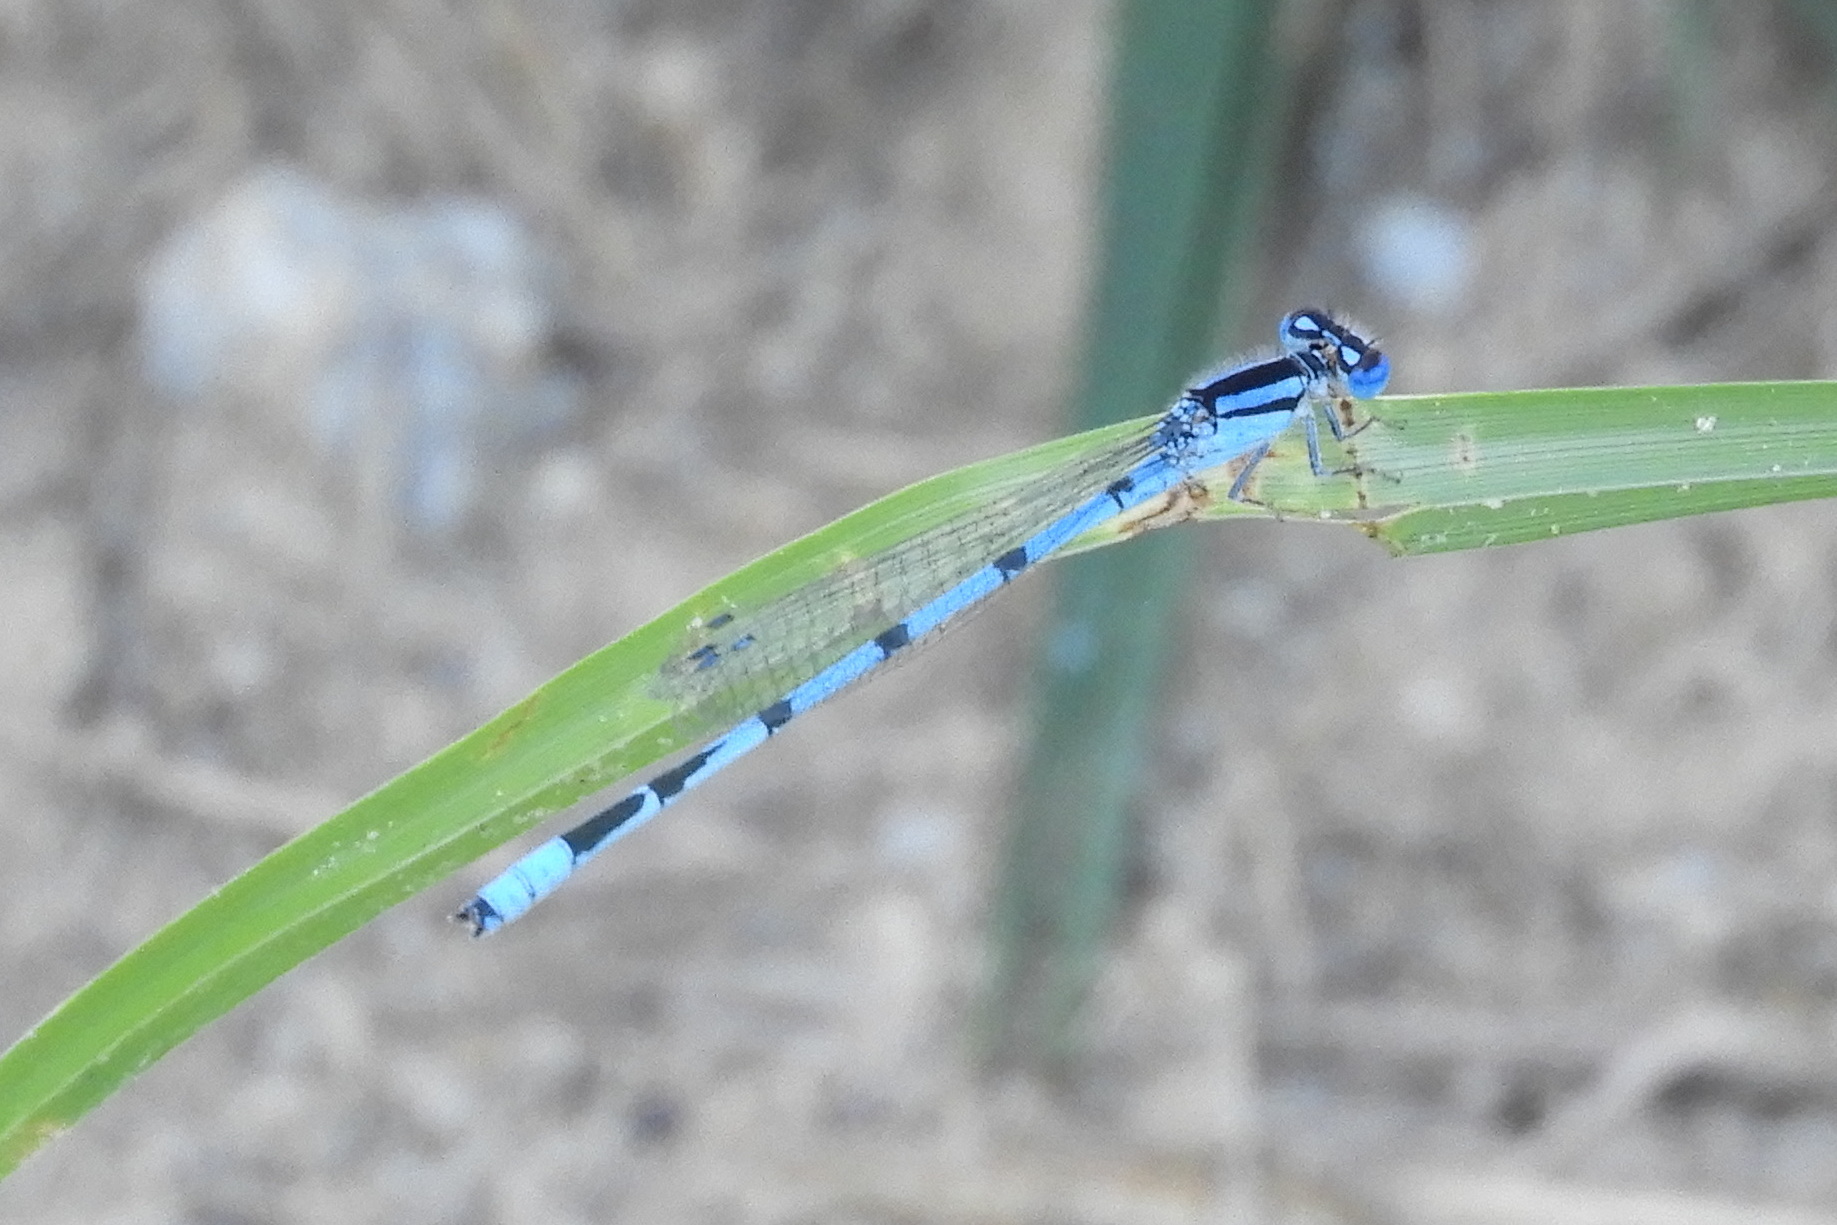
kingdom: Animalia
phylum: Arthropoda
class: Insecta
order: Odonata
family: Coenagrionidae
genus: Enallagma
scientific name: Enallagma civile
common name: Damselfly
